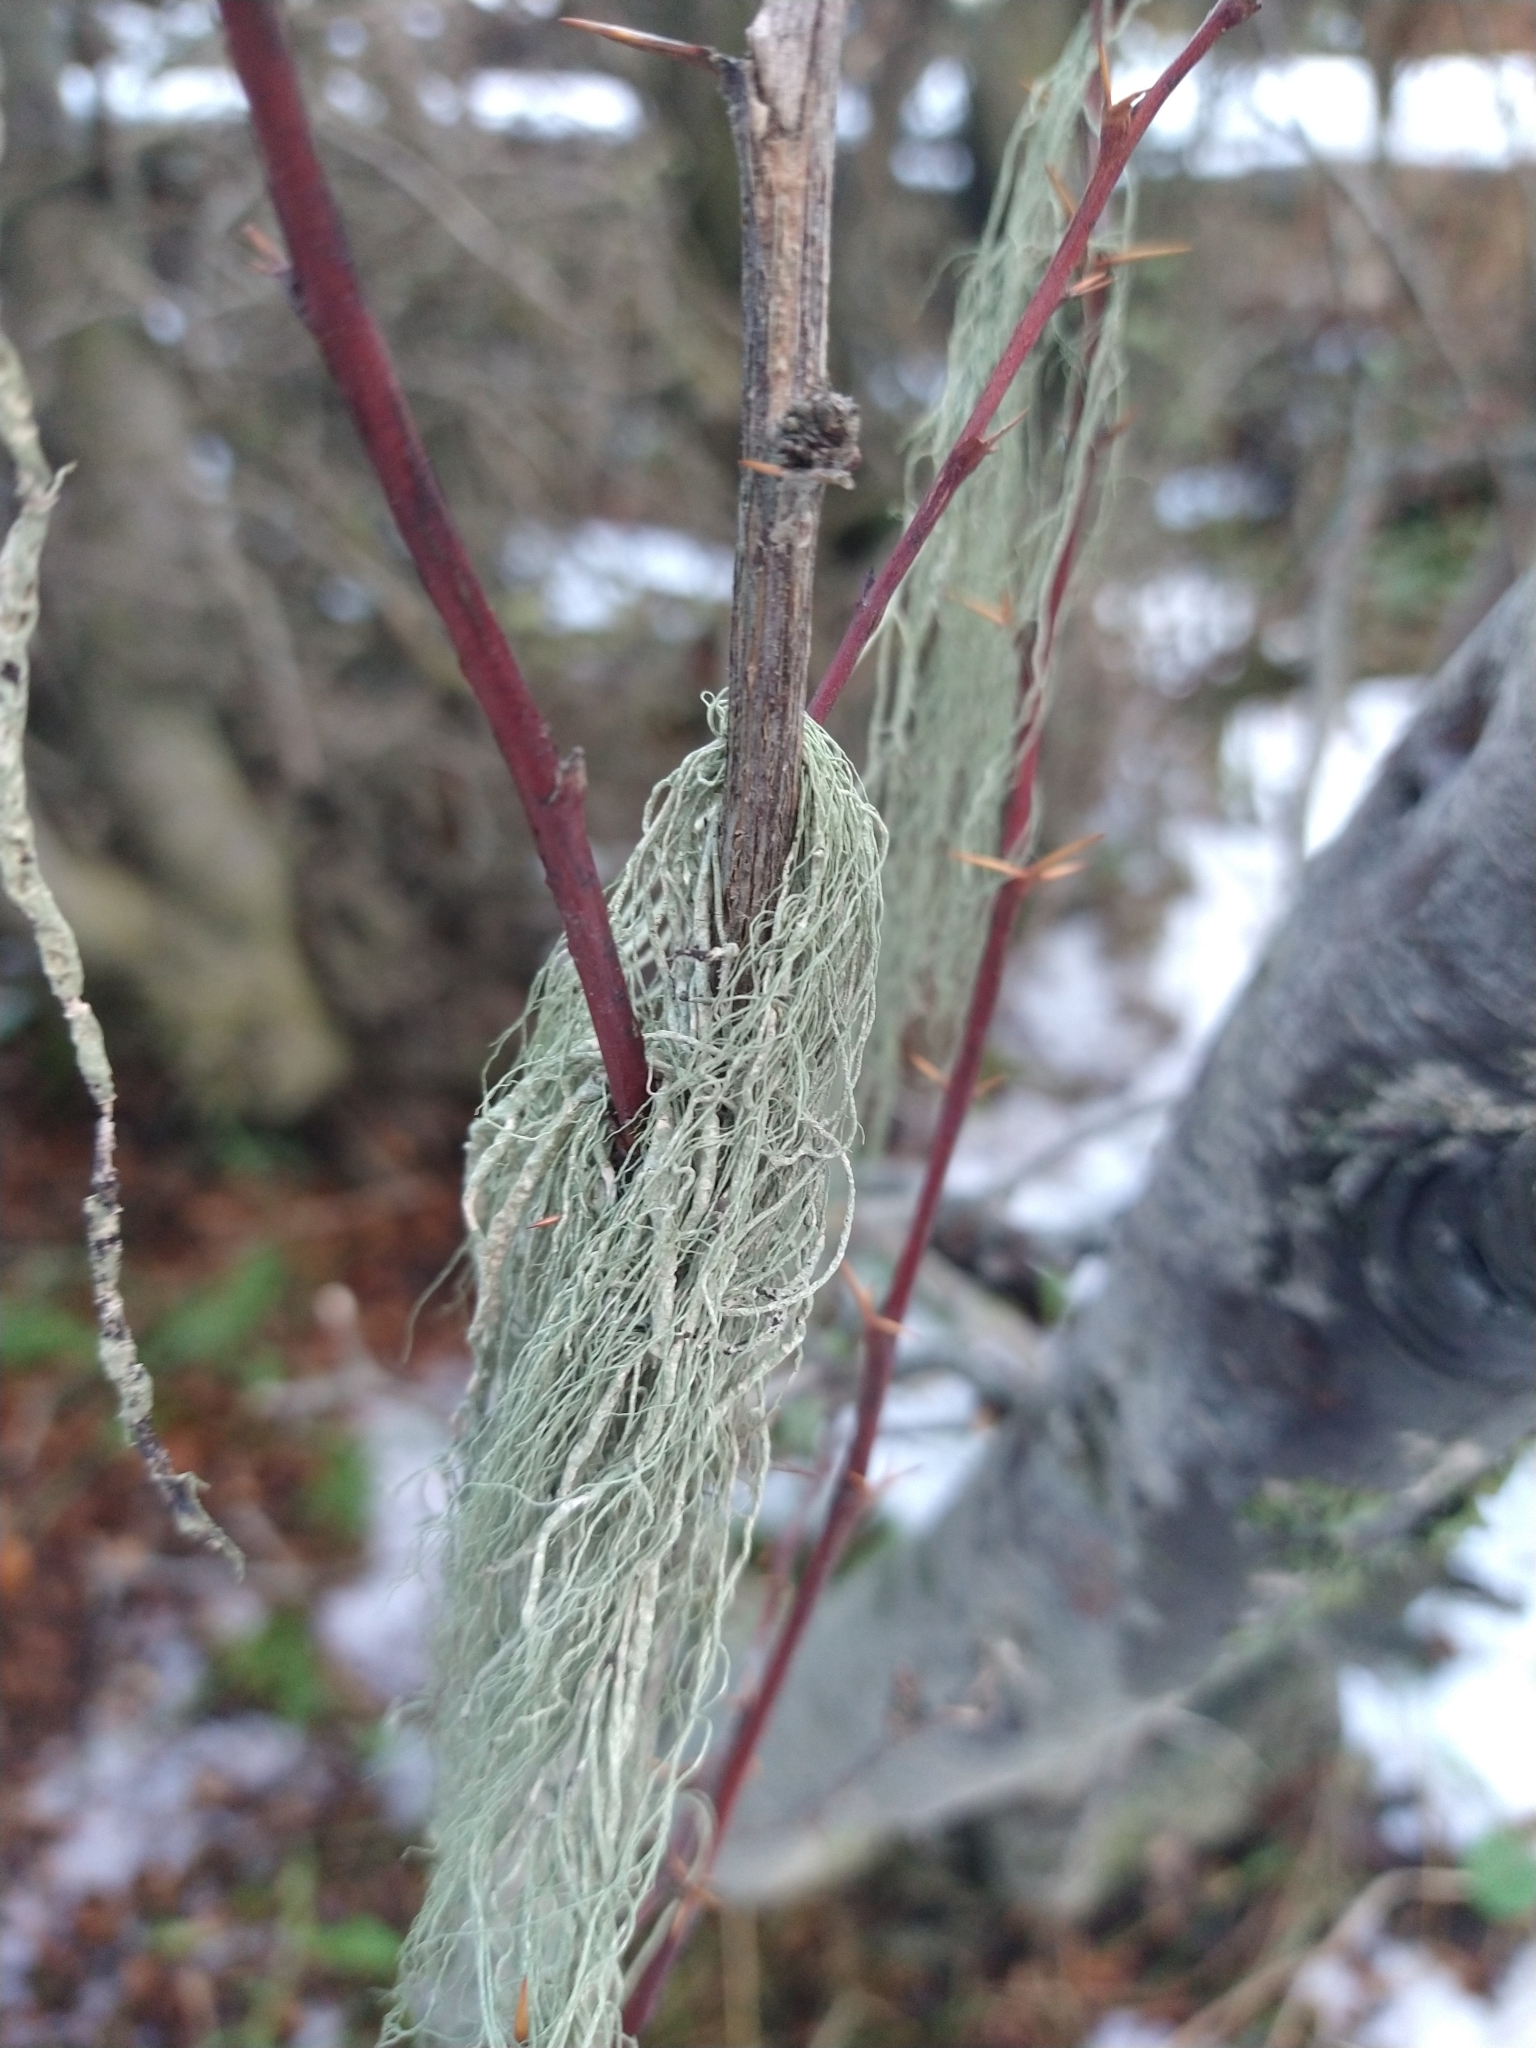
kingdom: Fungi
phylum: Ascomycota
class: Lecanoromycetes
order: Lecanorales
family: Parmeliaceae
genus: Usnea
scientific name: Usnea
